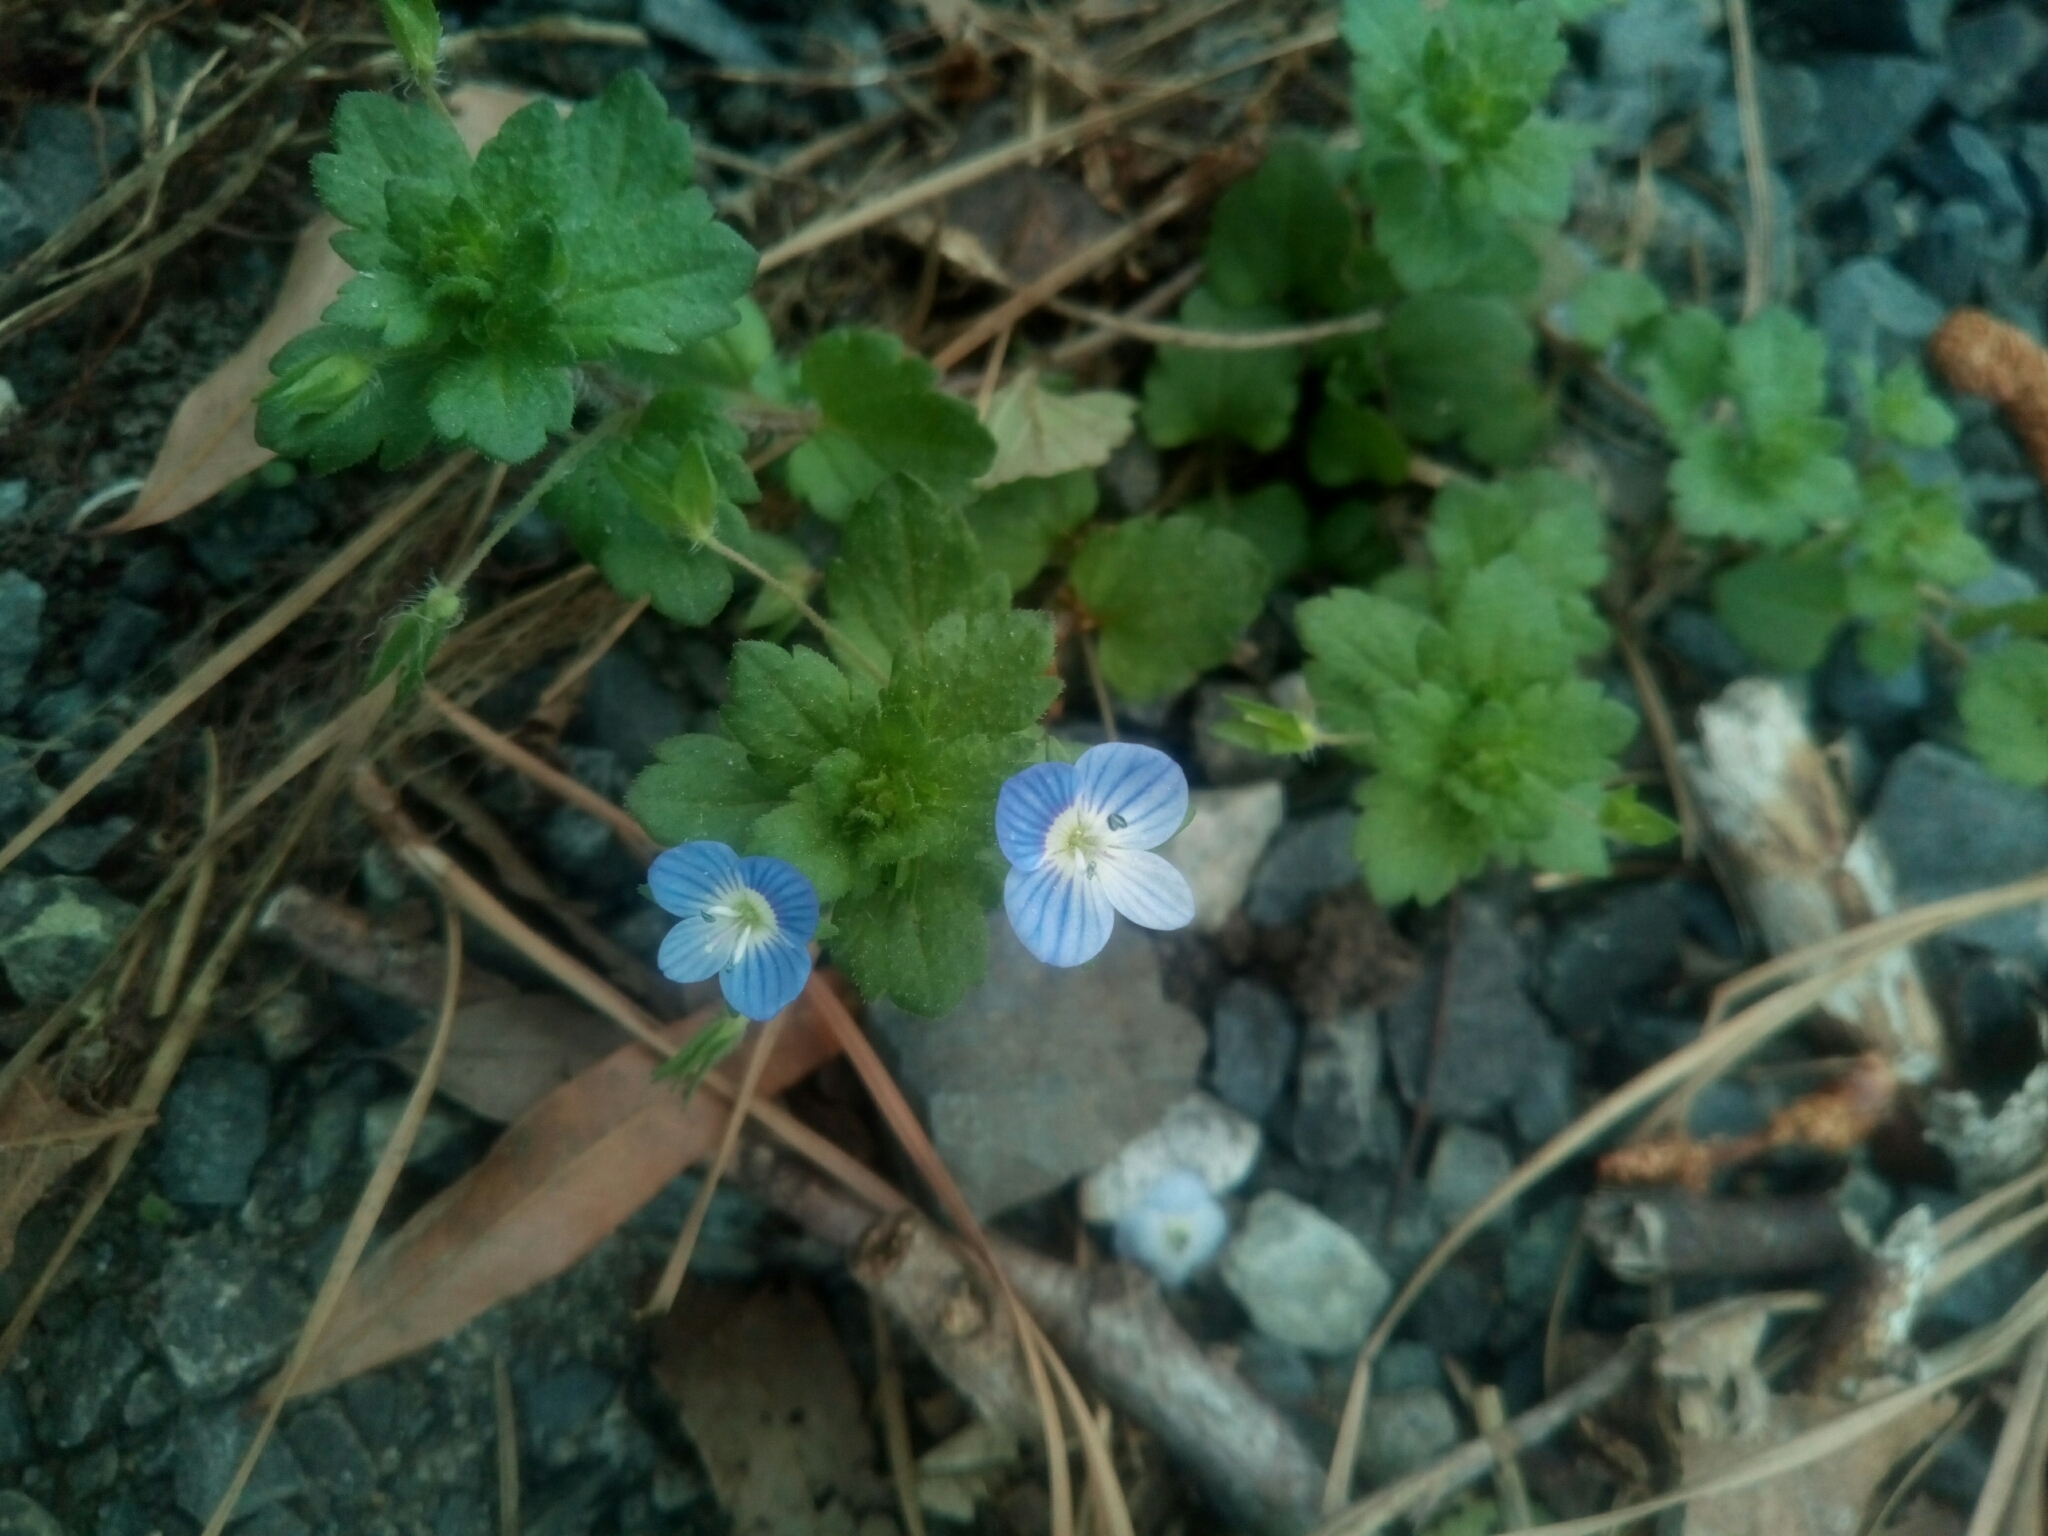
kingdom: Plantae
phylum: Tracheophyta
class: Magnoliopsida
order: Lamiales
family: Plantaginaceae
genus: Veronica
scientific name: Veronica persica
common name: Common field-speedwell
